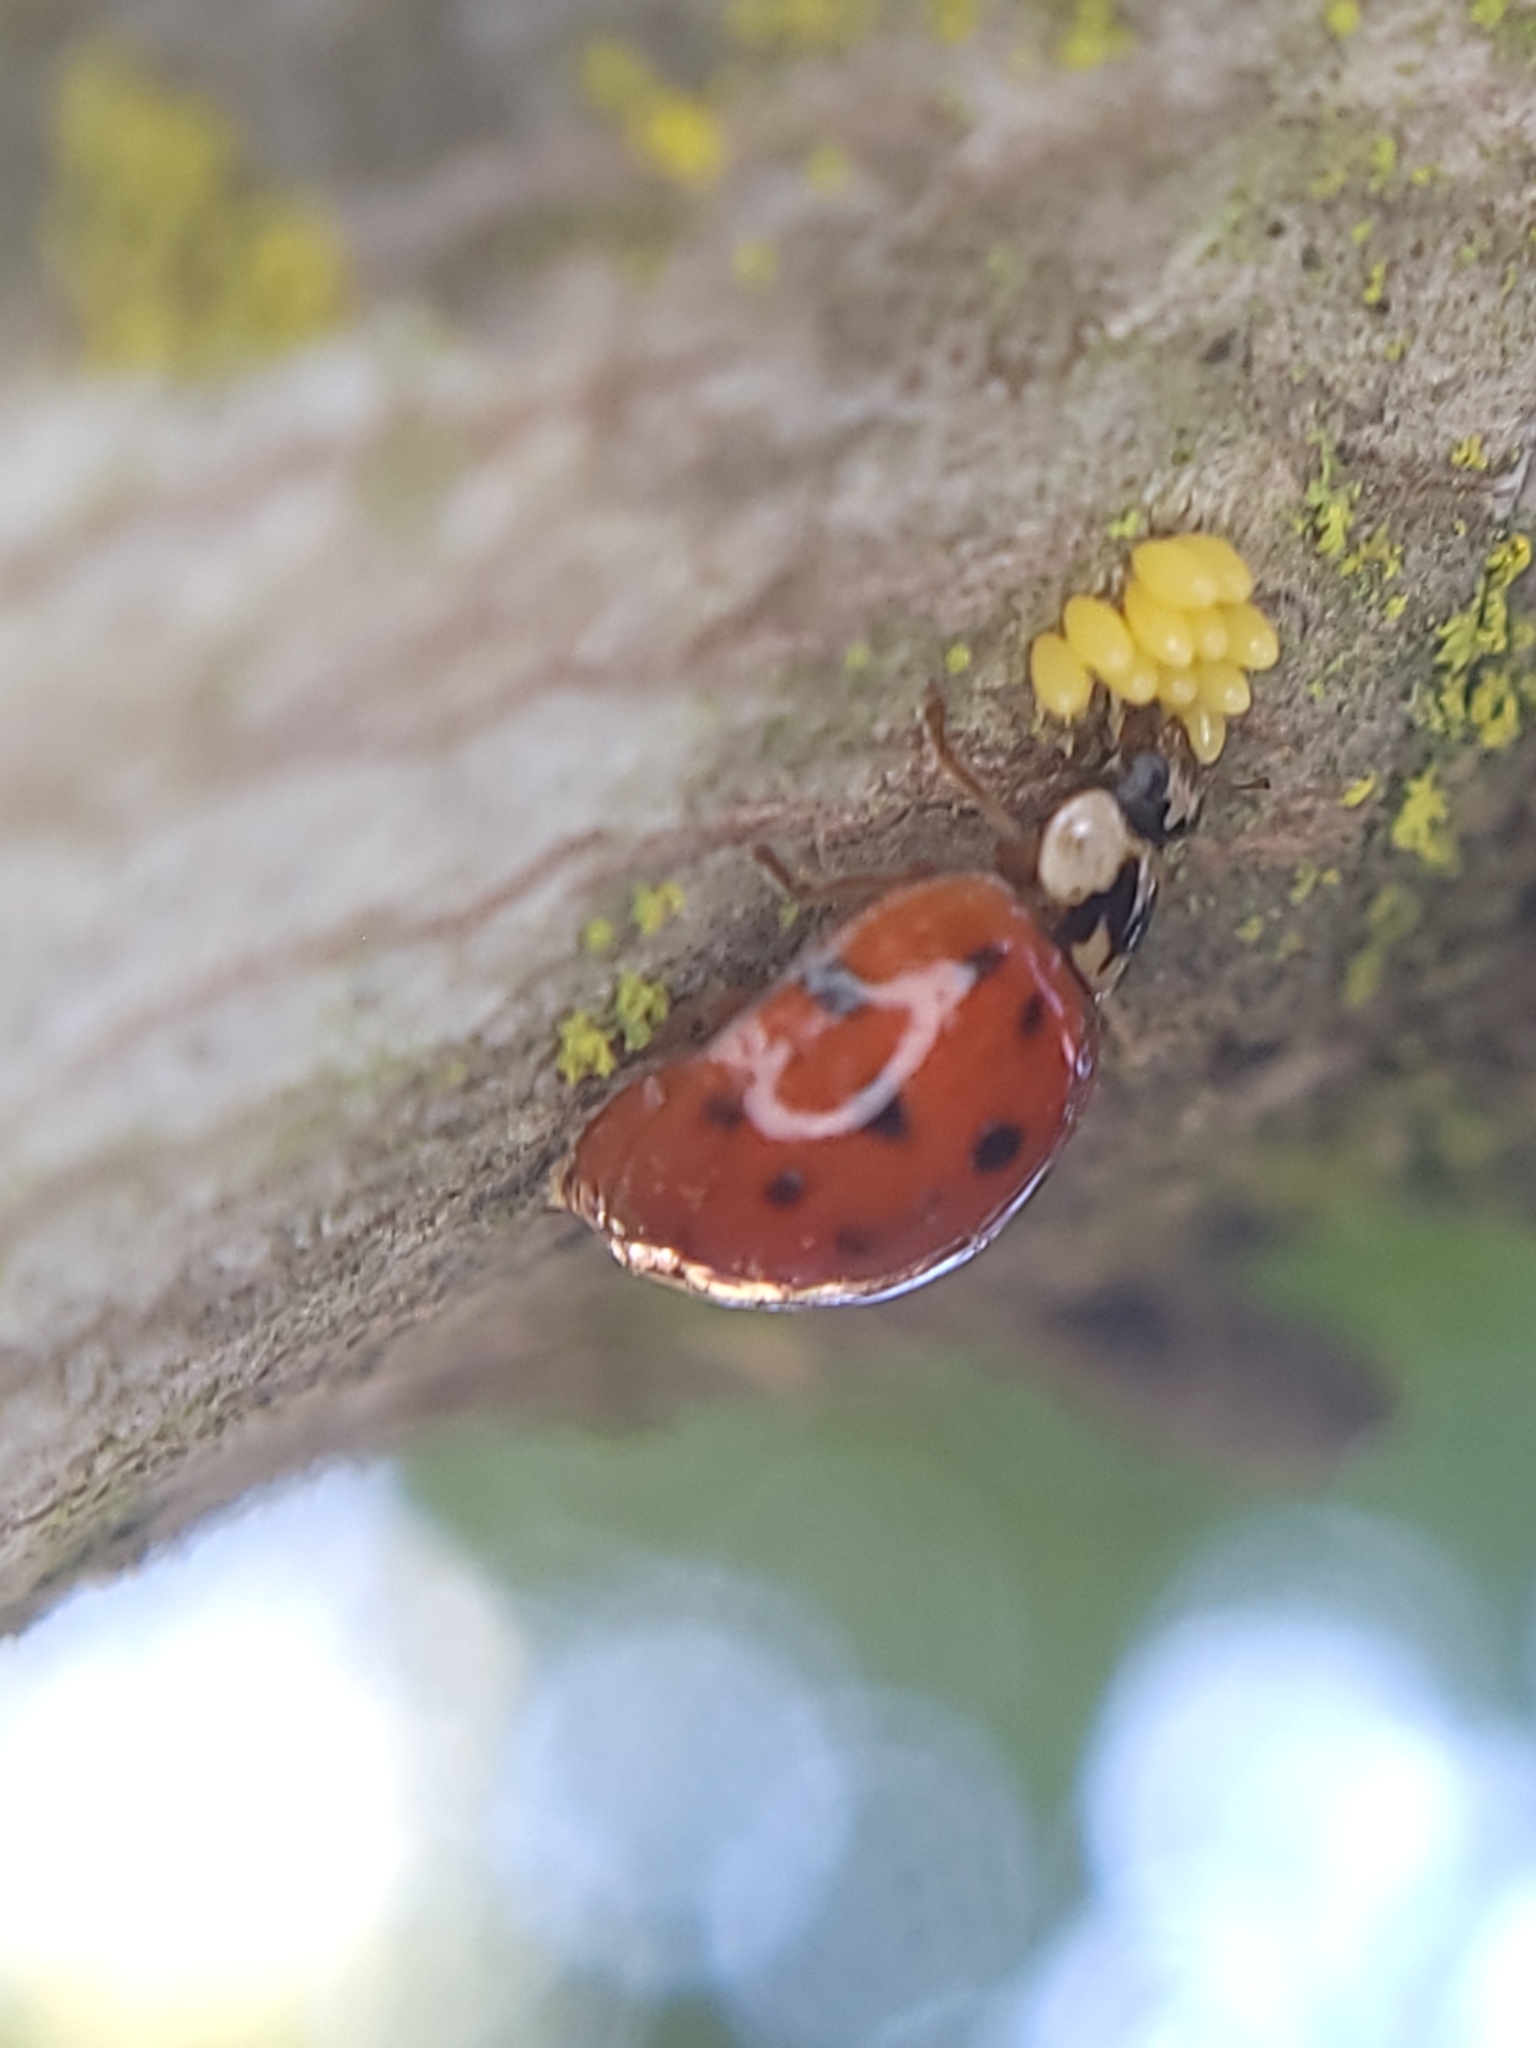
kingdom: Animalia
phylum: Arthropoda
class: Insecta
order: Coleoptera
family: Coccinellidae
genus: Harmonia
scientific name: Harmonia axyridis
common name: Harlequin ladybird
